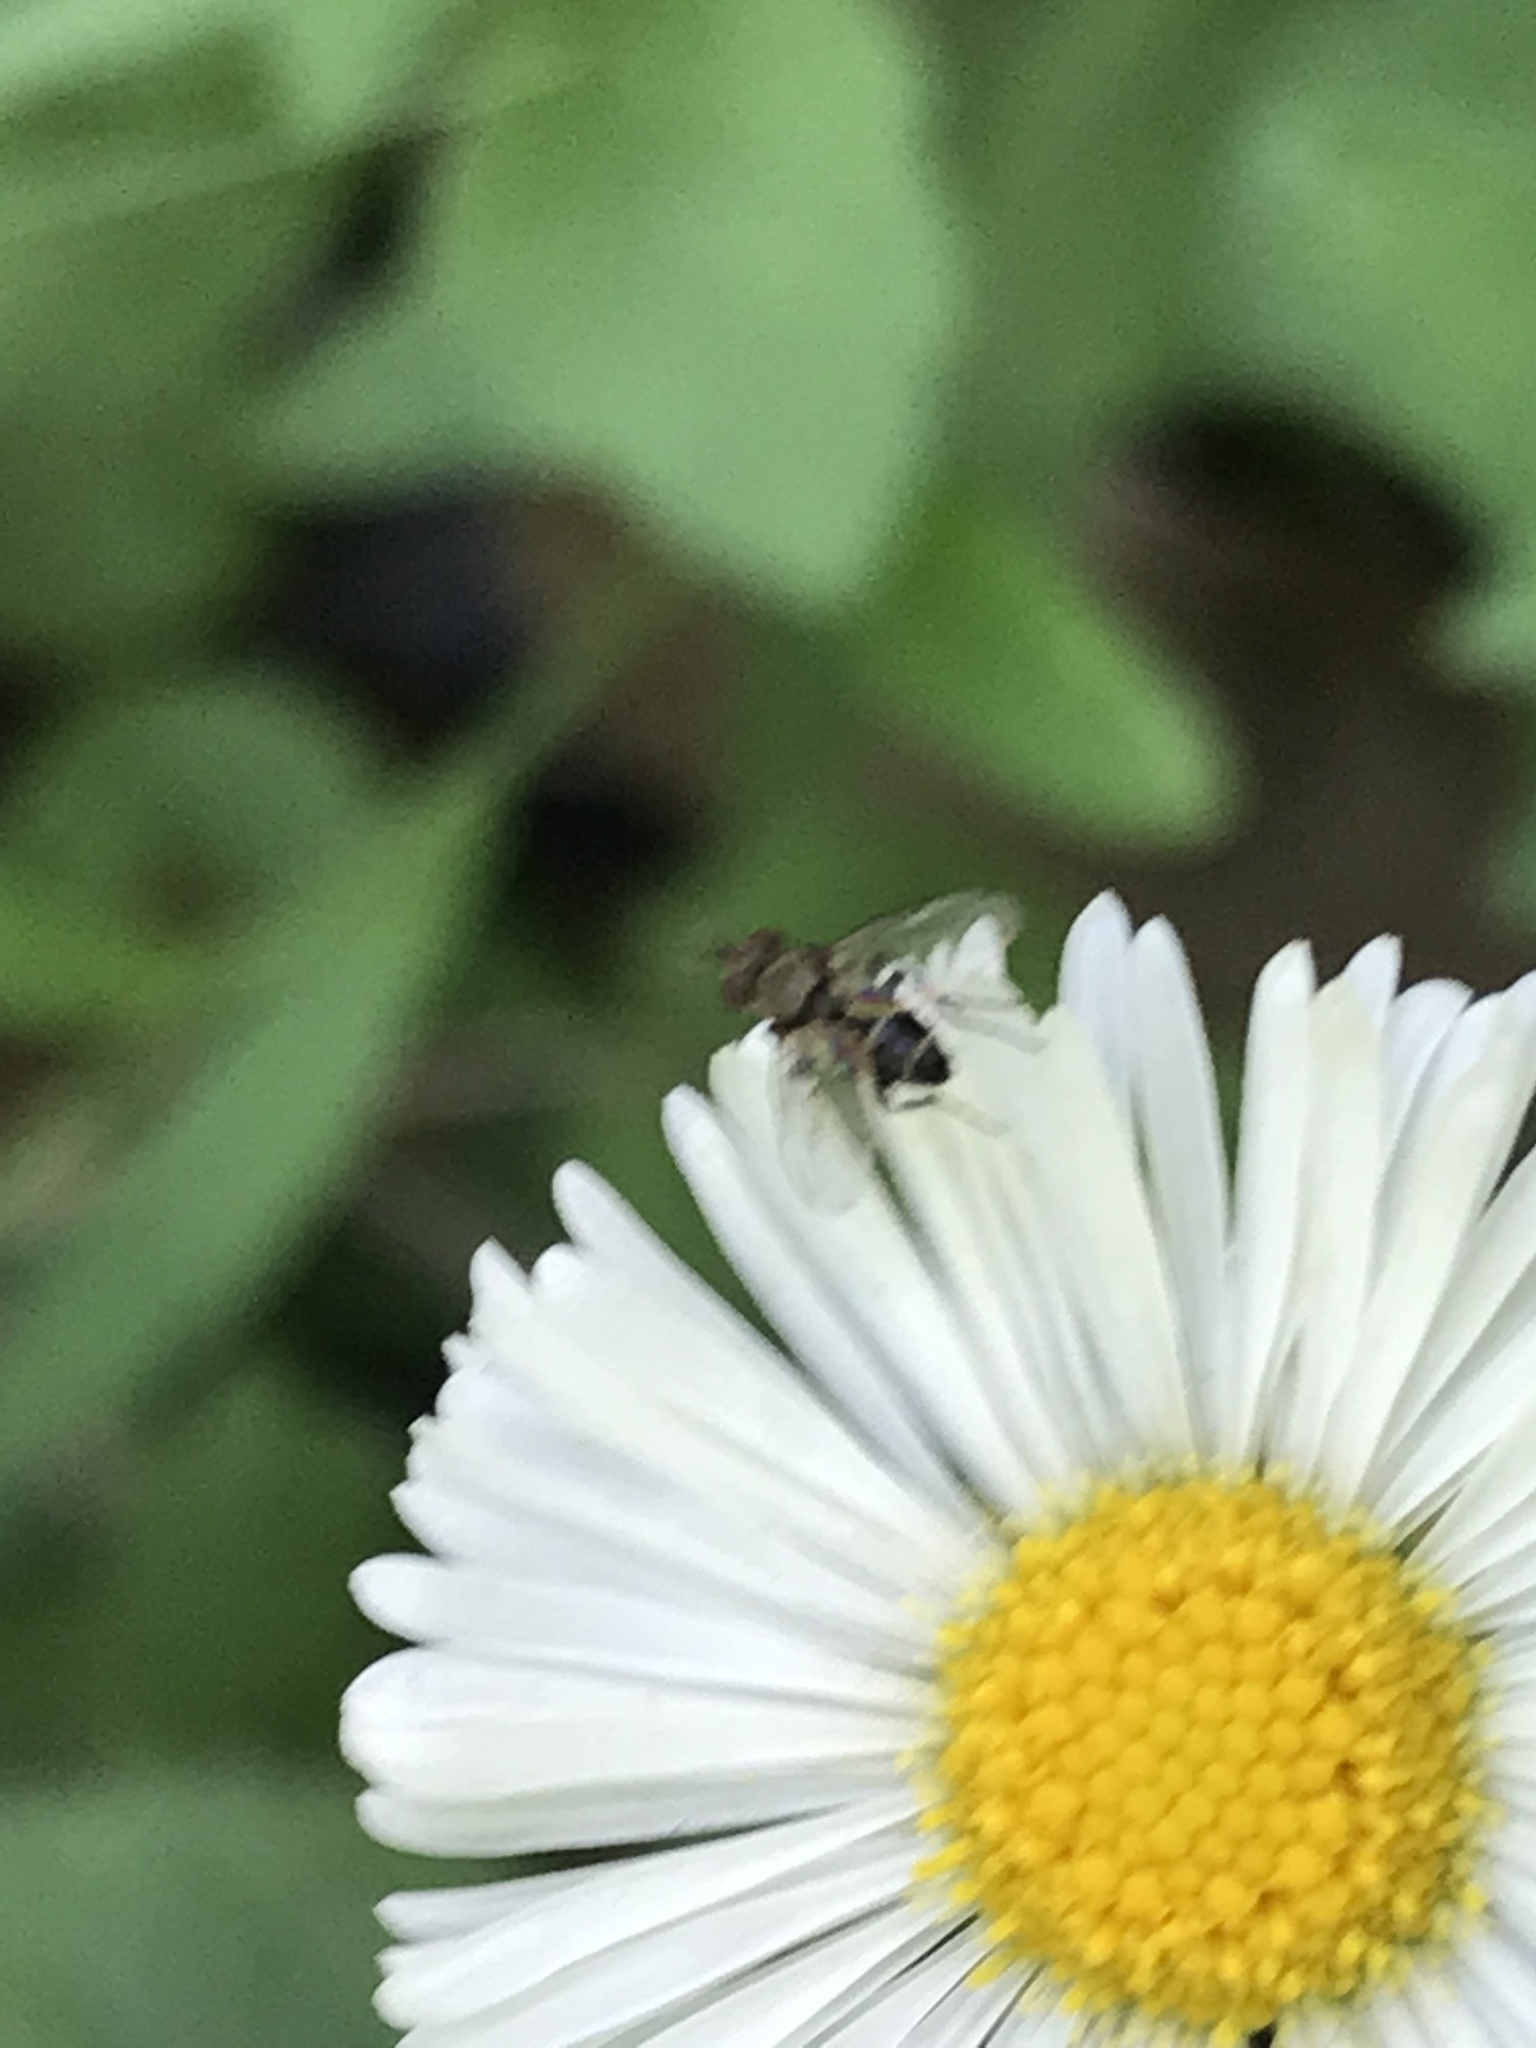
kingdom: Plantae
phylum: Tracheophyta
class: Magnoliopsida
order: Asterales
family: Asteraceae
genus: Erigeron
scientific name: Erigeron modestus
